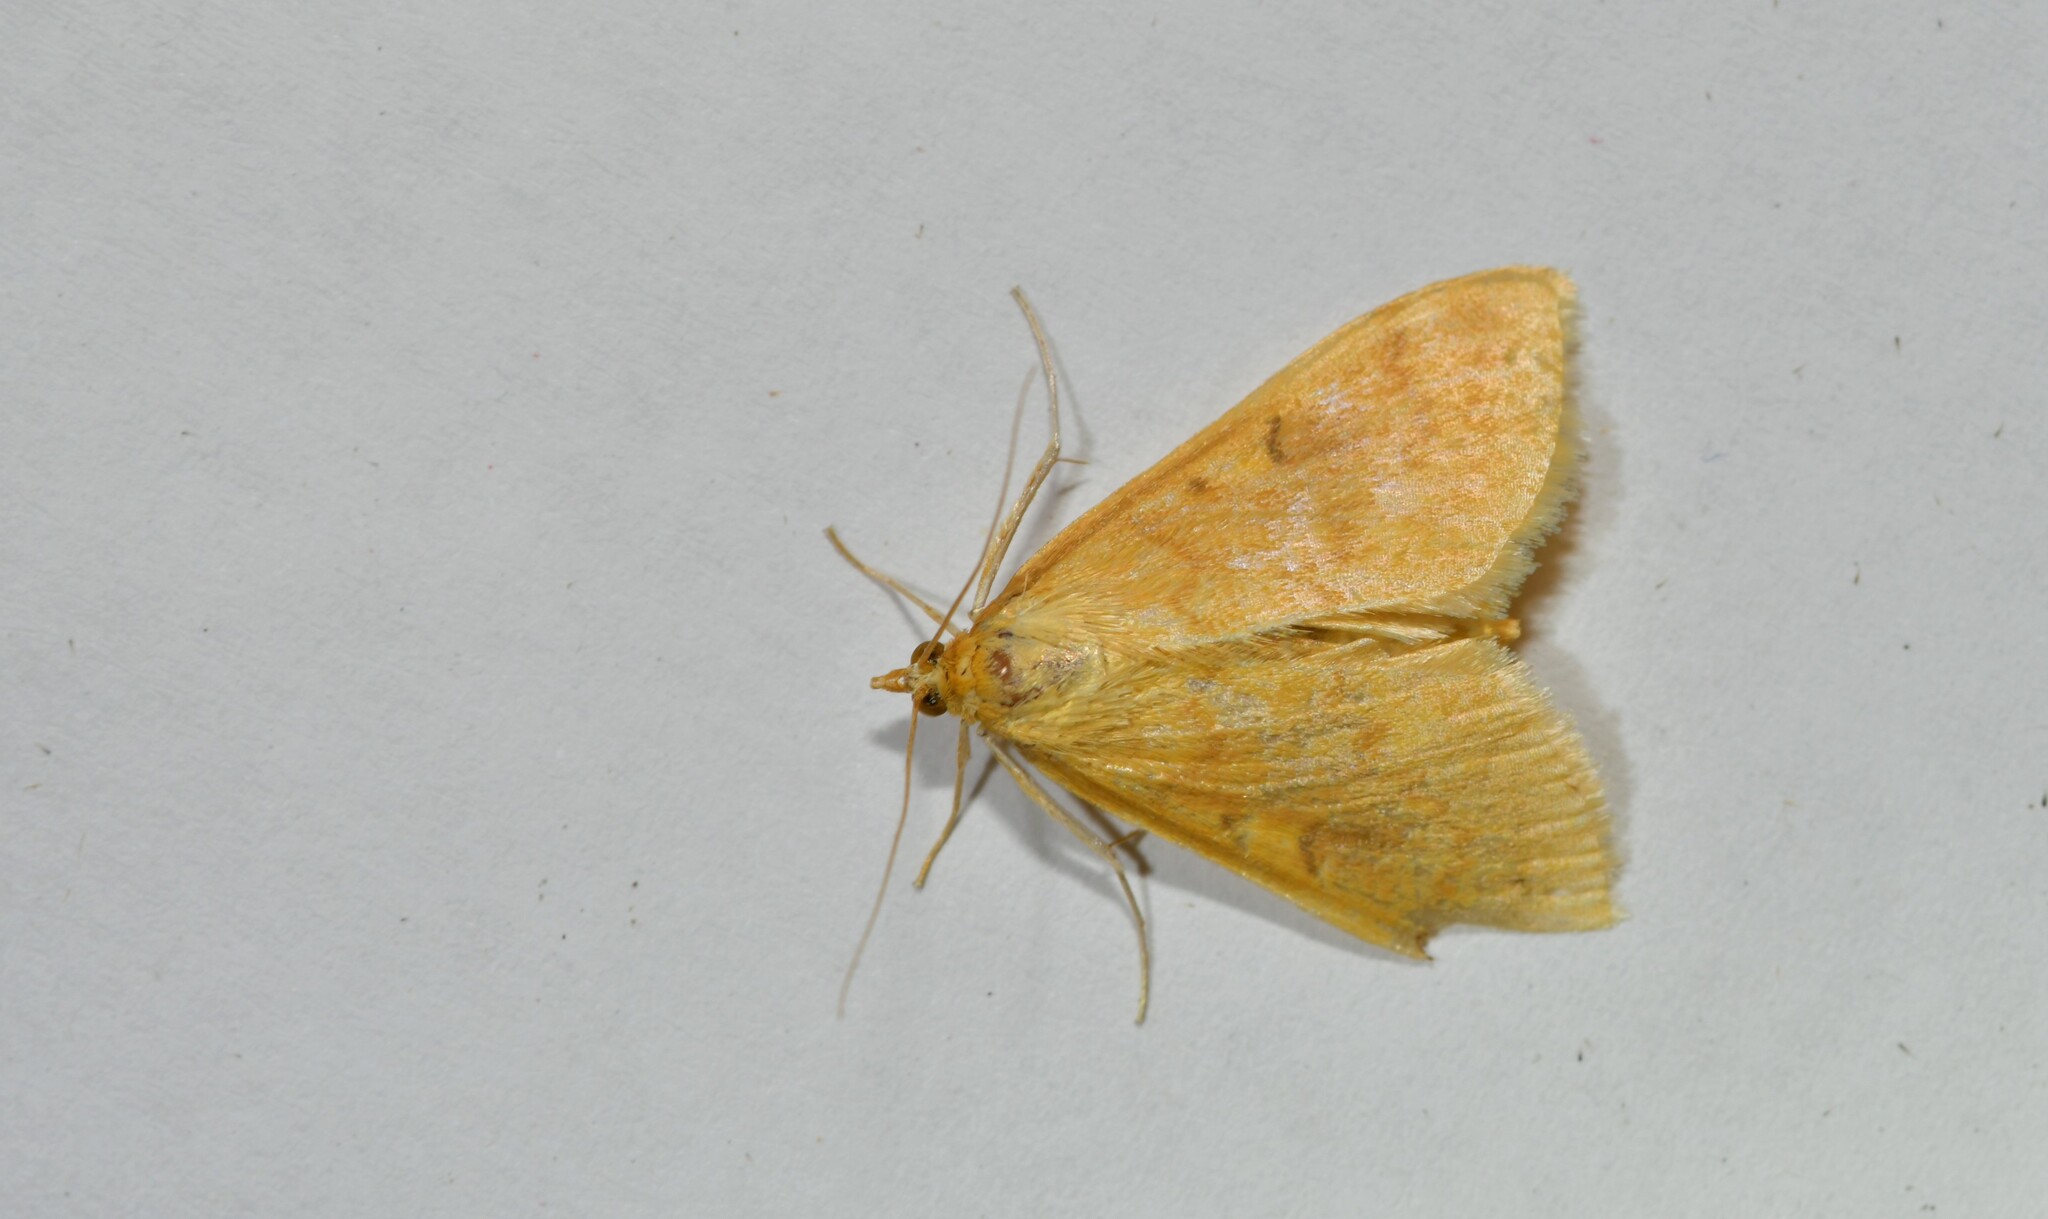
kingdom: Animalia
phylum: Arthropoda
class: Insecta
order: Lepidoptera
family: Crambidae
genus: Ostrinia
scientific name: Ostrinia nubilalis
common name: European corn borer
